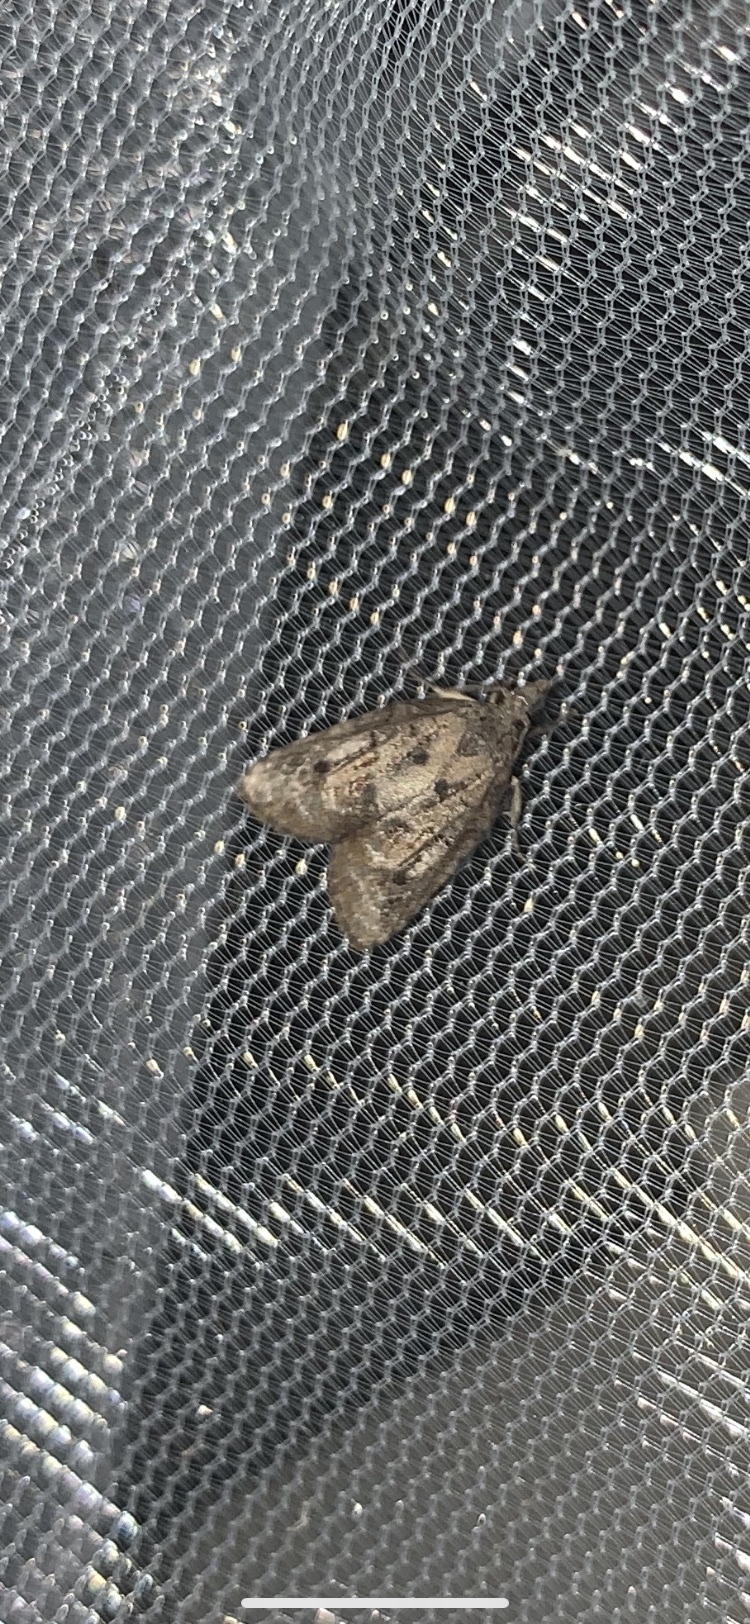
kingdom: Animalia
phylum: Arthropoda
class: Insecta
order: Lepidoptera
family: Tortricidae
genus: Platynota
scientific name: Platynota idaeusalis
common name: Tufted apple bud moth
